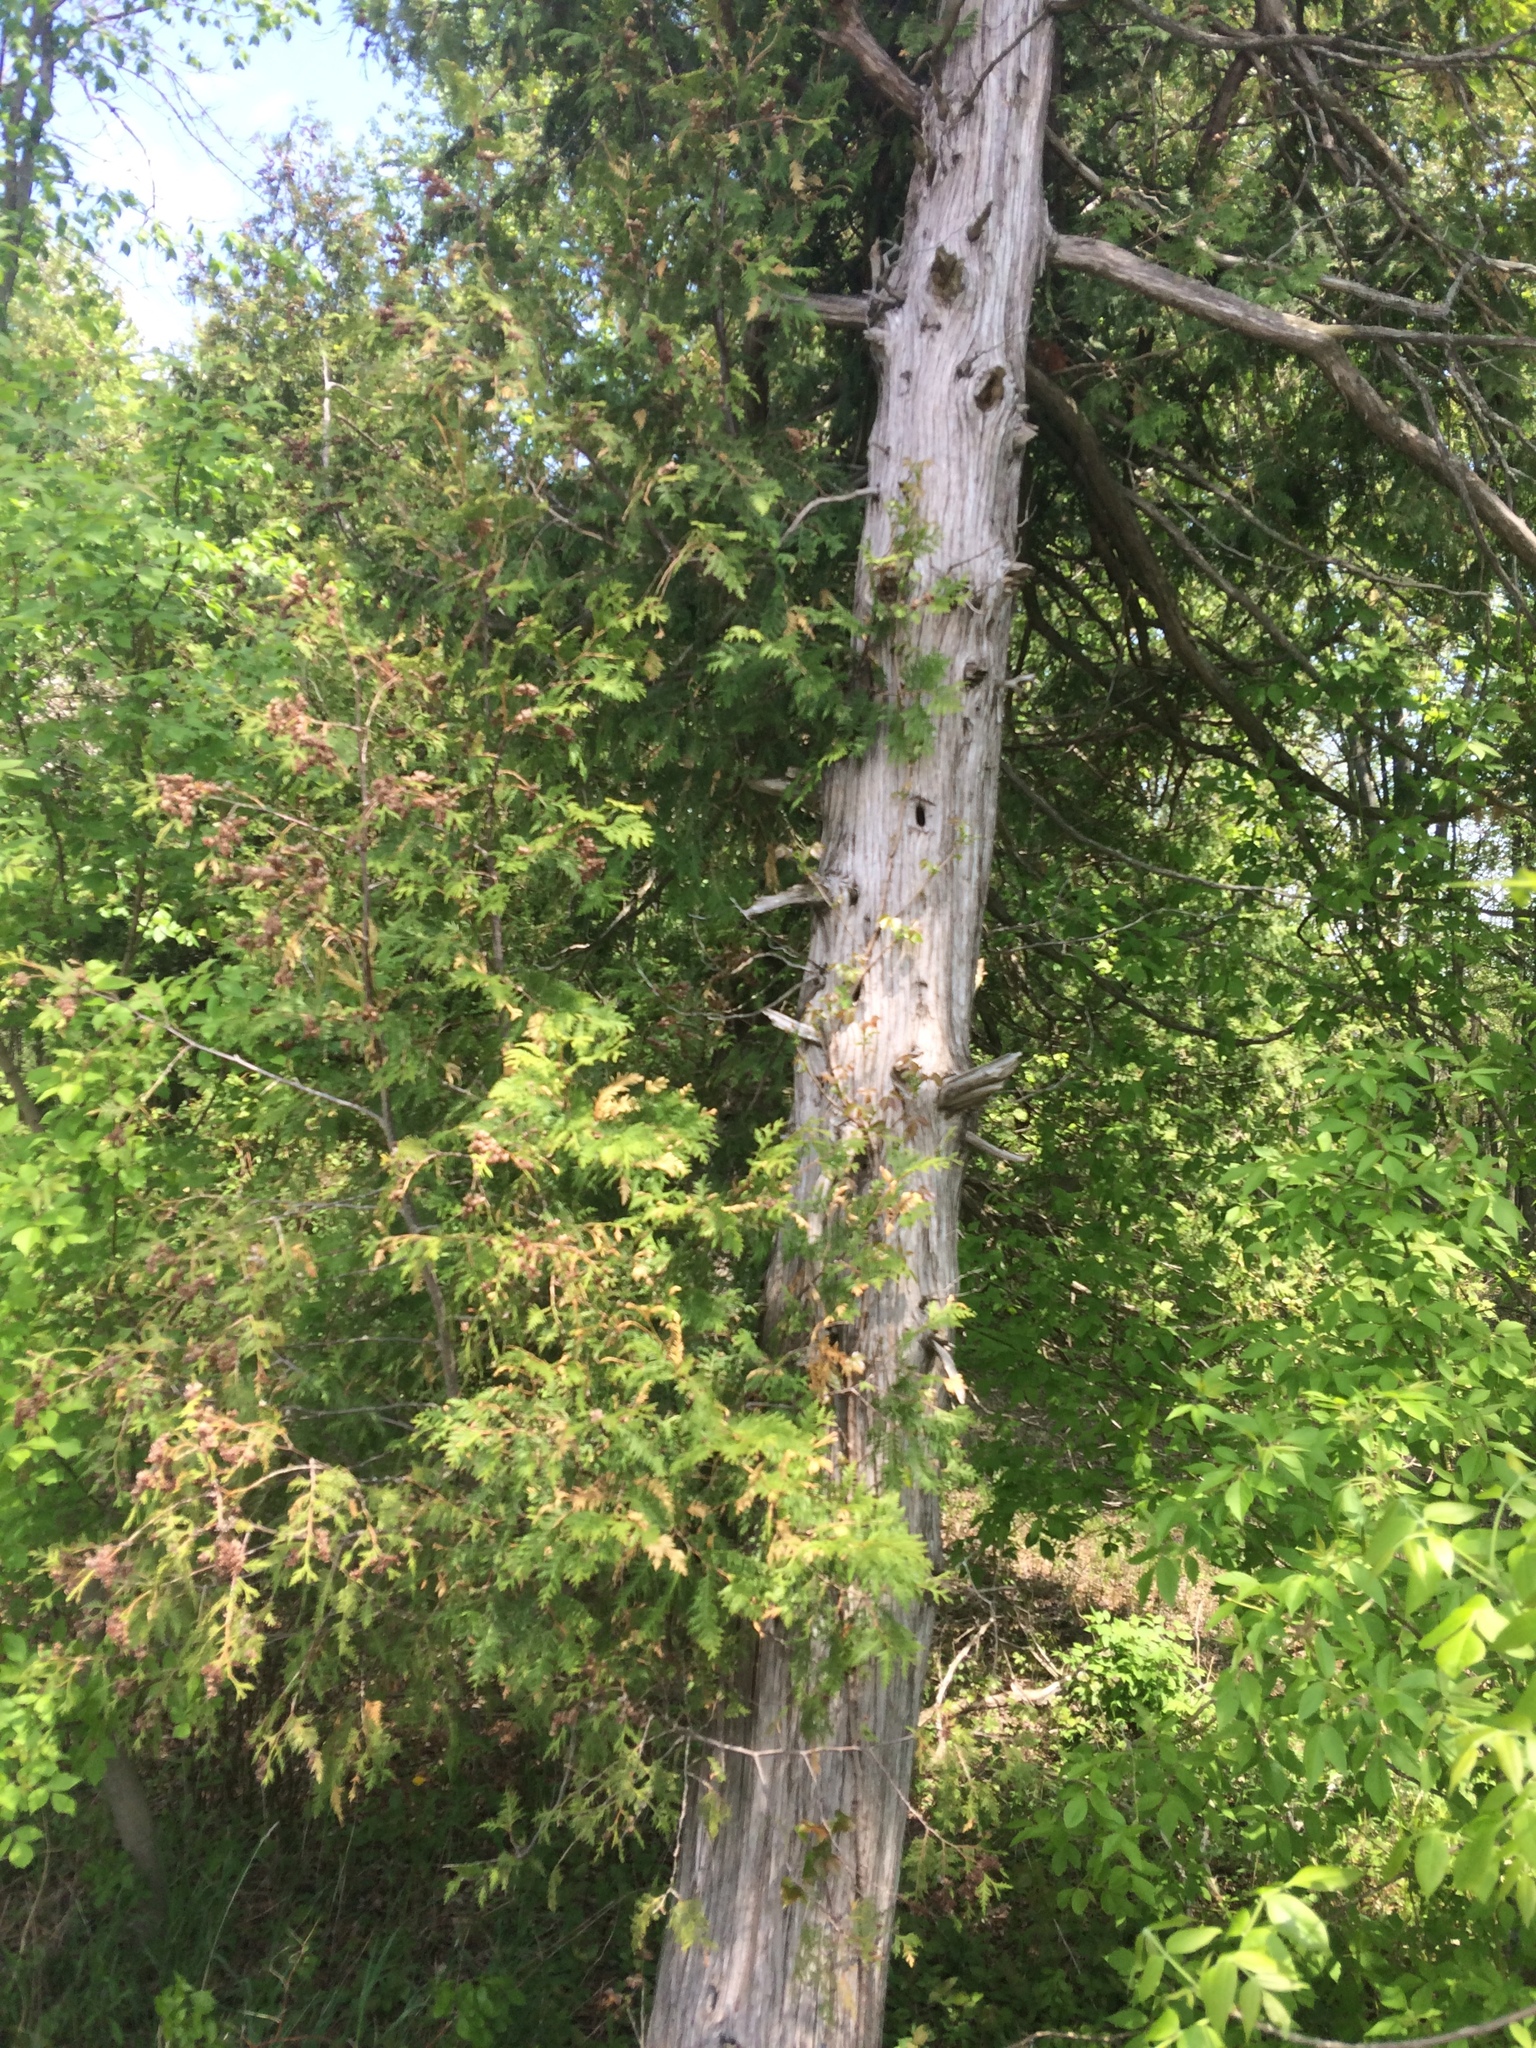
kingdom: Plantae
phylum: Tracheophyta
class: Pinopsida
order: Pinales
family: Cupressaceae
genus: Thuja
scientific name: Thuja occidentalis
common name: Northern white-cedar
